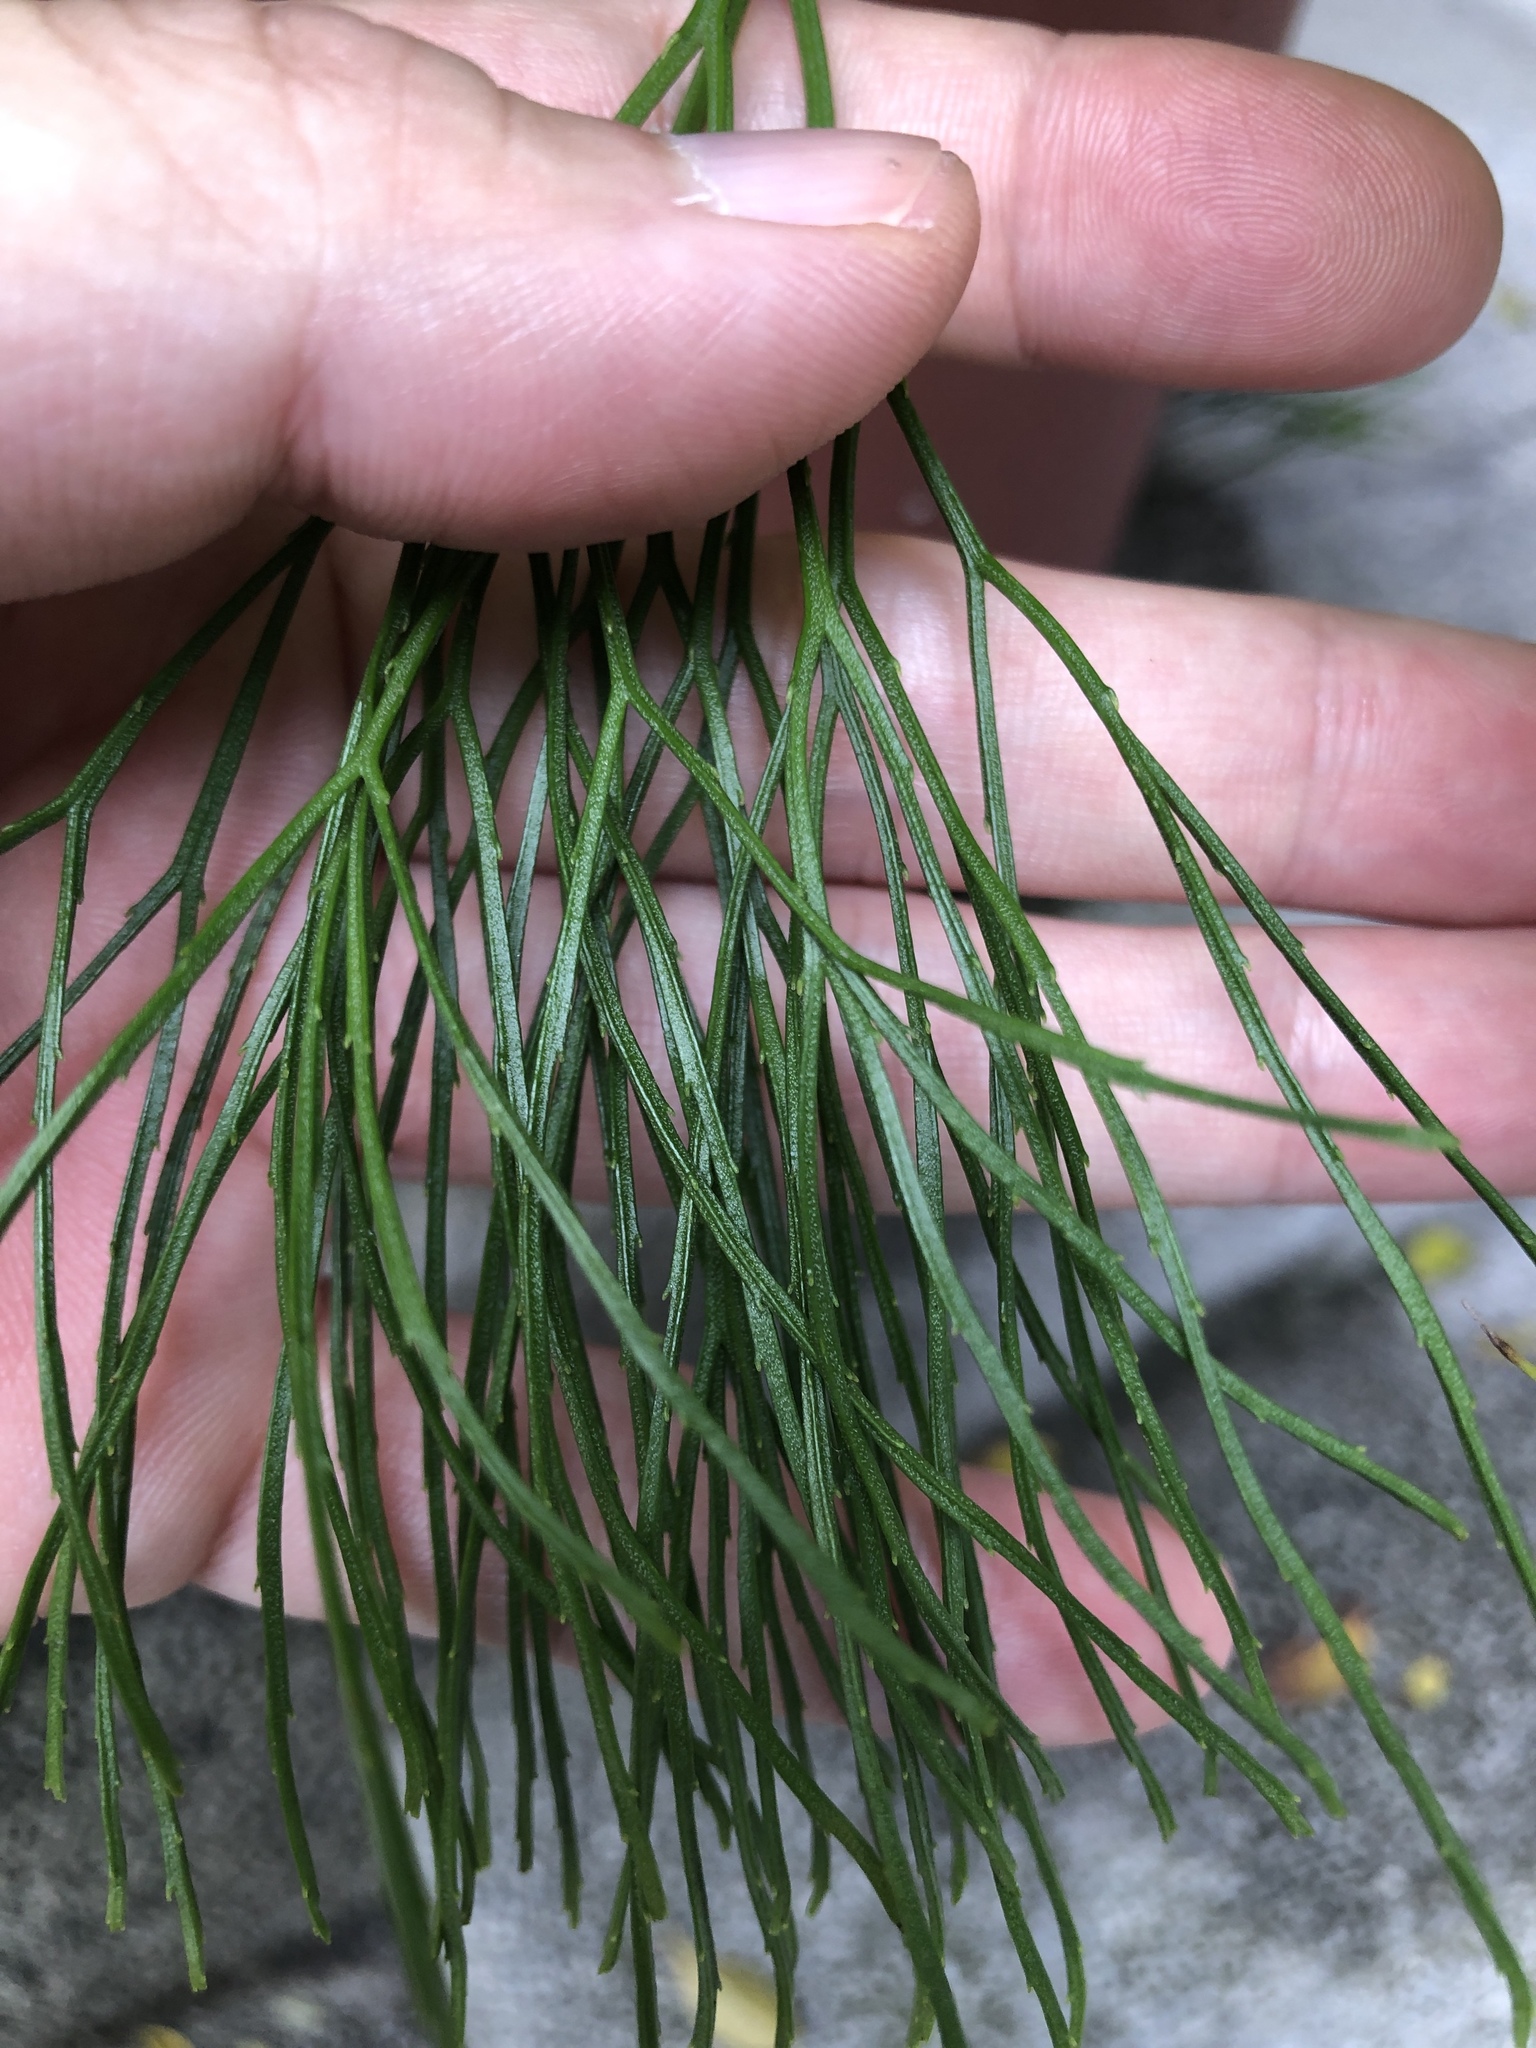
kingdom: Plantae
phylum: Tracheophyta
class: Polypodiopsida
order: Psilotales
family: Psilotaceae
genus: Psilotum
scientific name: Psilotum nudum
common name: Skeleton fork fern
